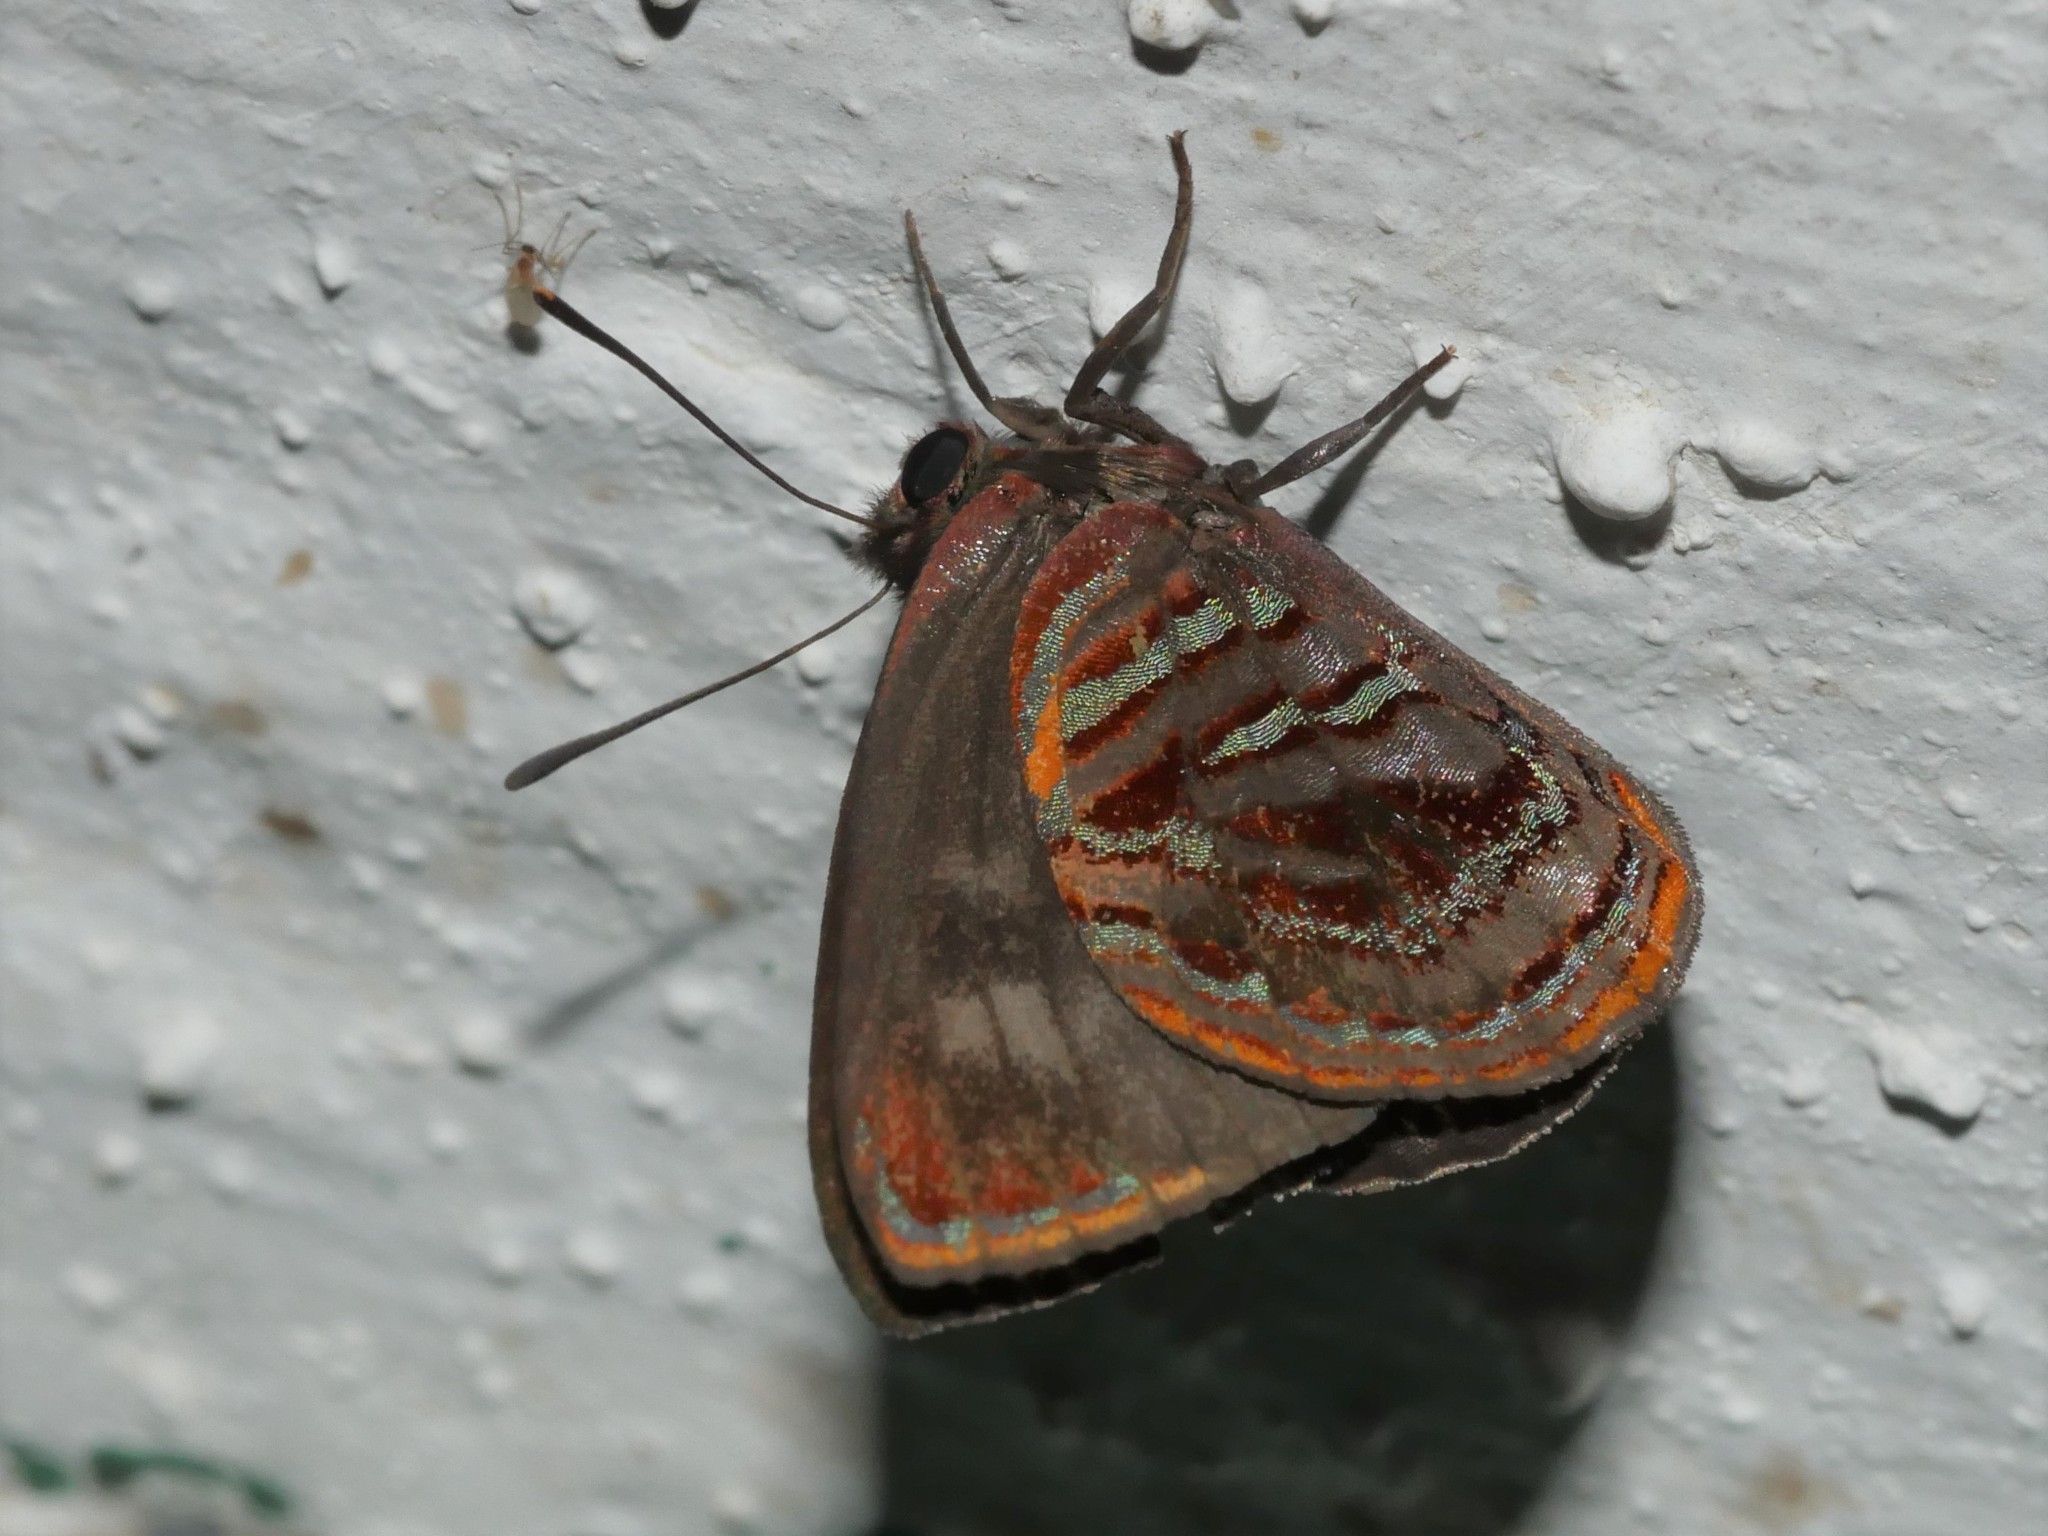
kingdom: Animalia
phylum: Arthropoda
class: Insecta
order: Lepidoptera
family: Lycaenidae
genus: Iridana
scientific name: Iridana hypocala
